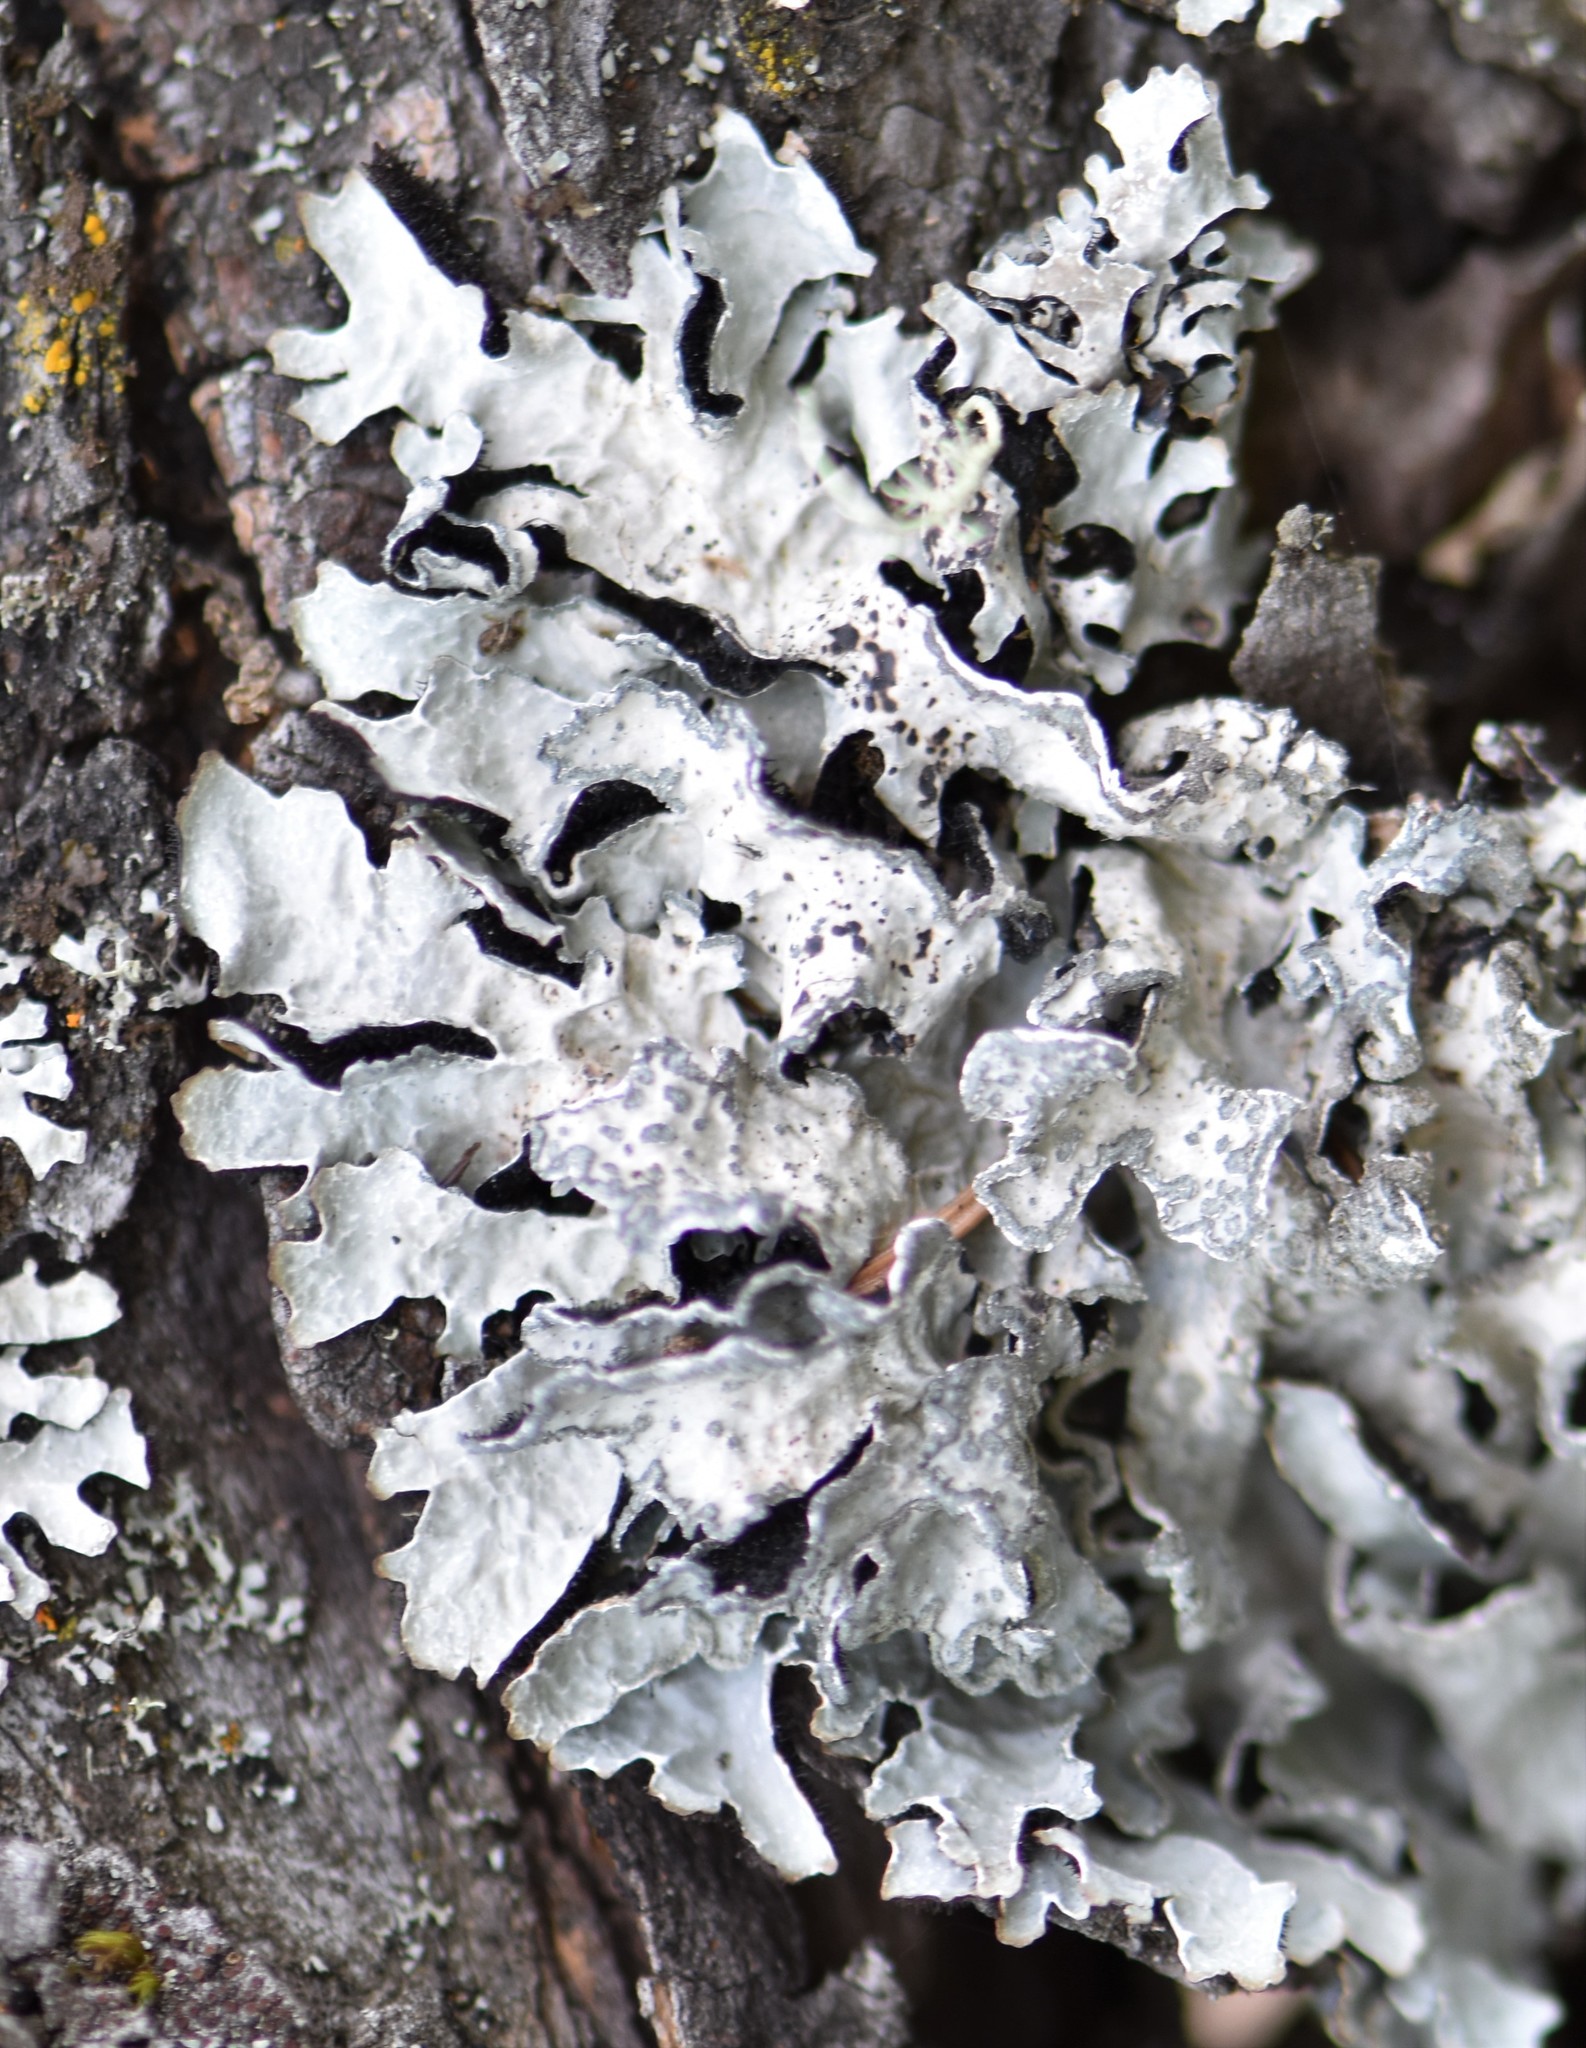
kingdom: Fungi
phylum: Ascomycota
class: Lecanoromycetes
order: Lecanorales
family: Parmeliaceae
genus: Parmelia
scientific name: Parmelia sulcata
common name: Netted shield lichen
